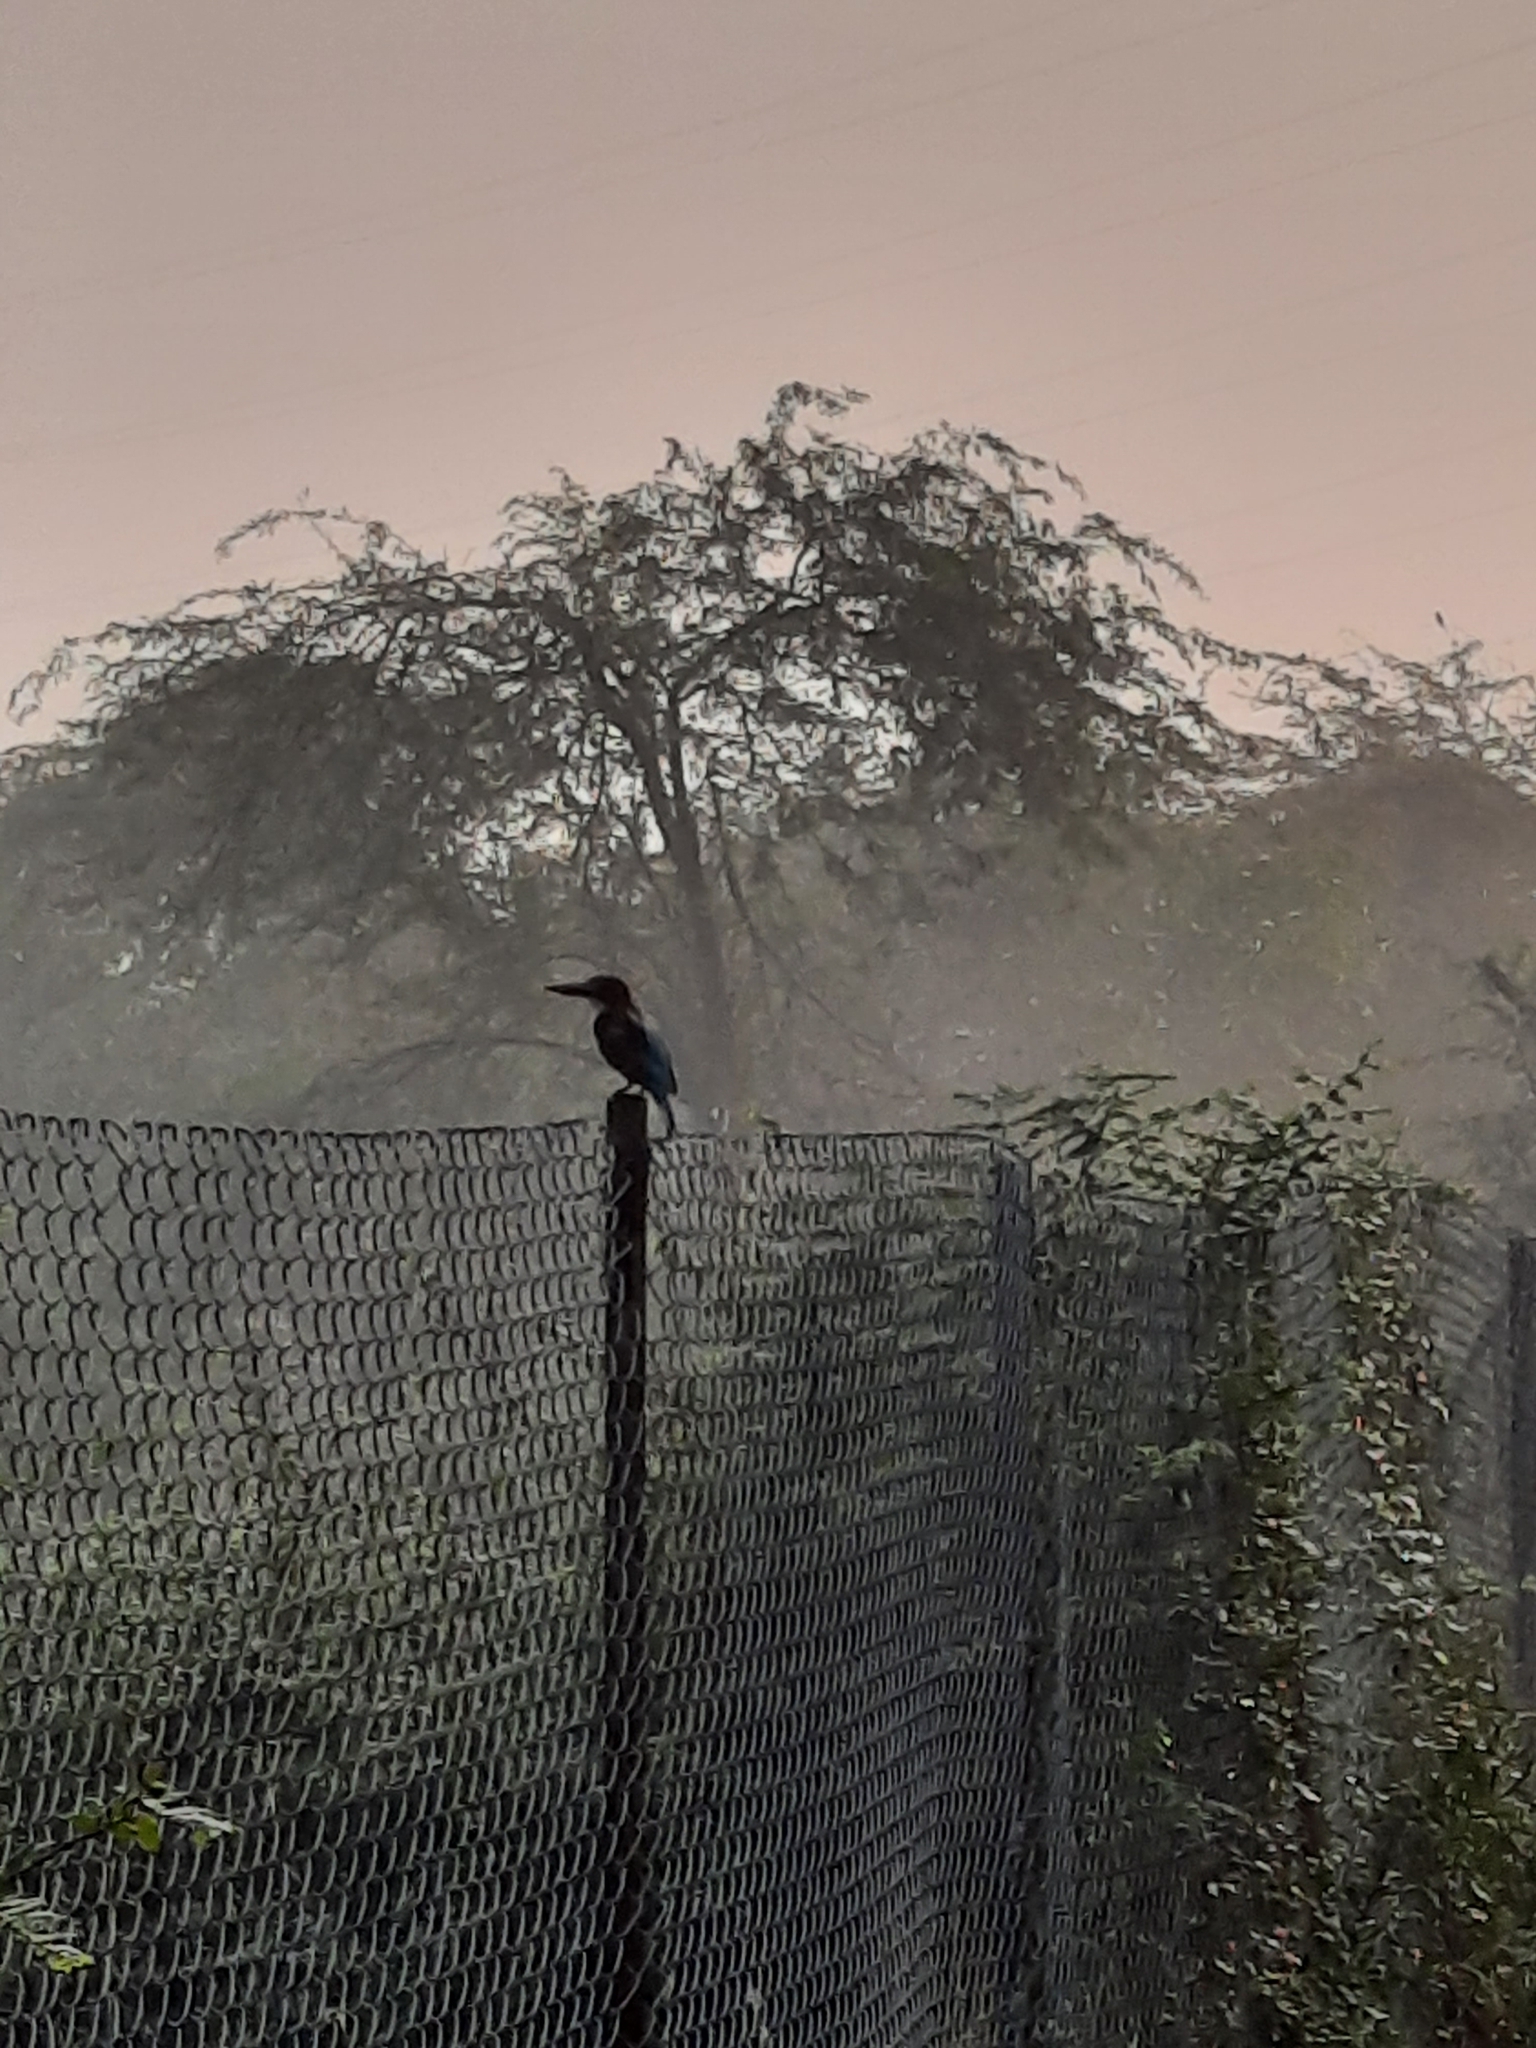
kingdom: Animalia
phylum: Chordata
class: Aves
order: Coraciiformes
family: Alcedinidae
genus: Halcyon
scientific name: Halcyon smyrnensis
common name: White-throated kingfisher
